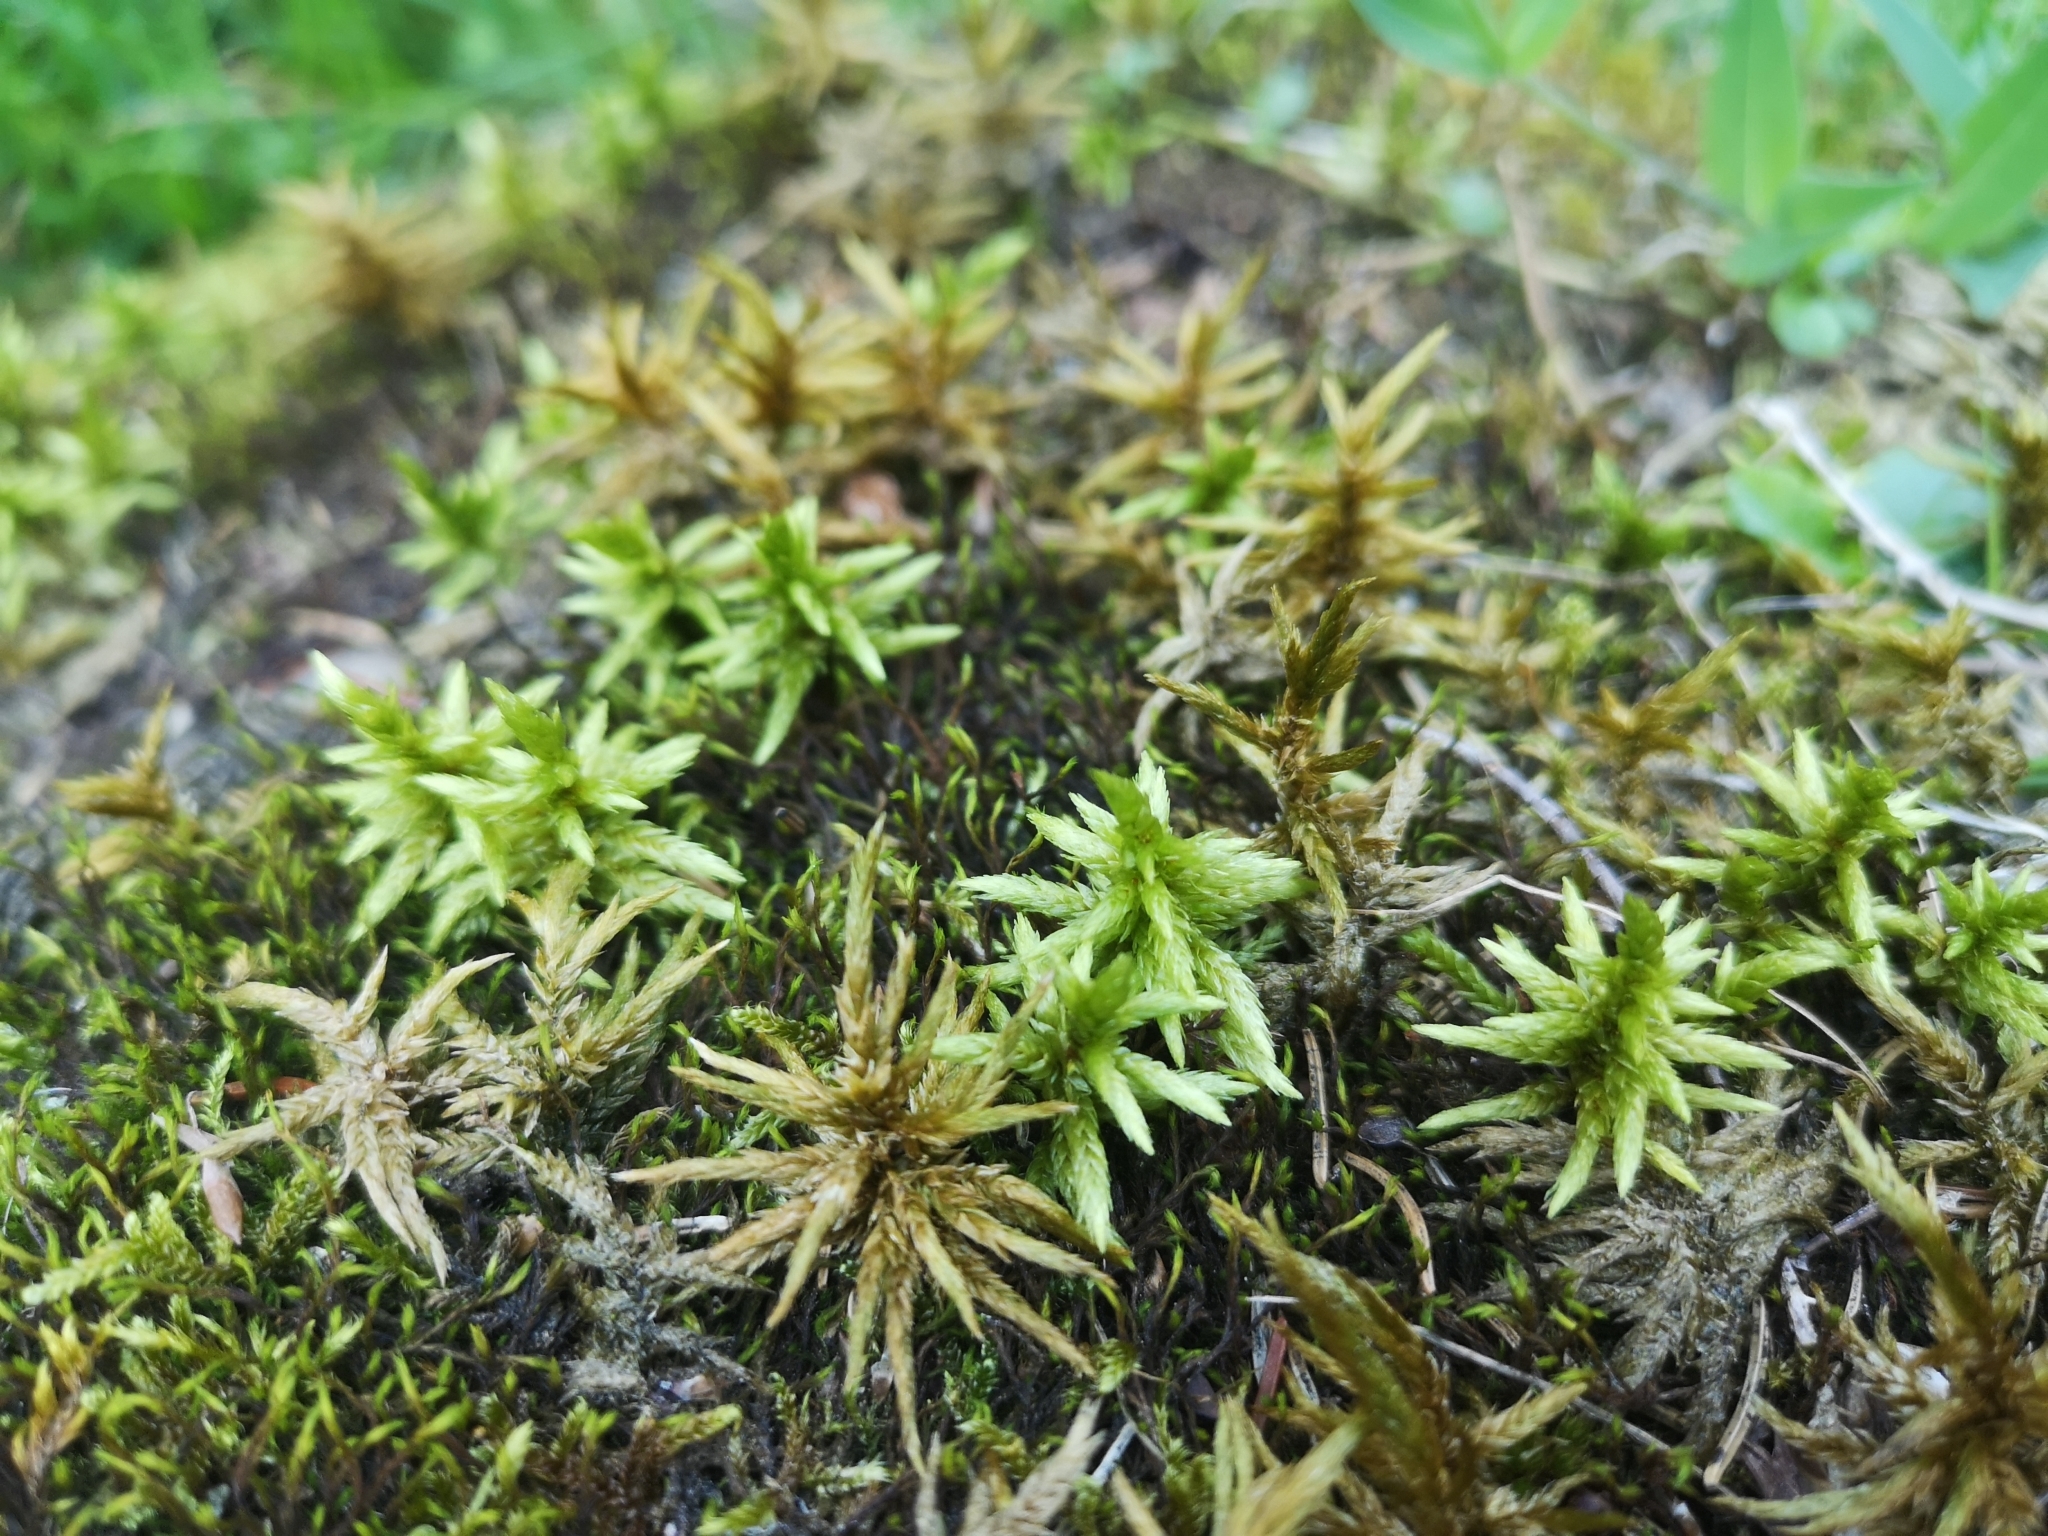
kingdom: Plantae
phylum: Bryophyta
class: Bryopsida
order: Hypnales
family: Climaciaceae
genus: Climacium
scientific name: Climacium dendroides
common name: Northern tree moss
